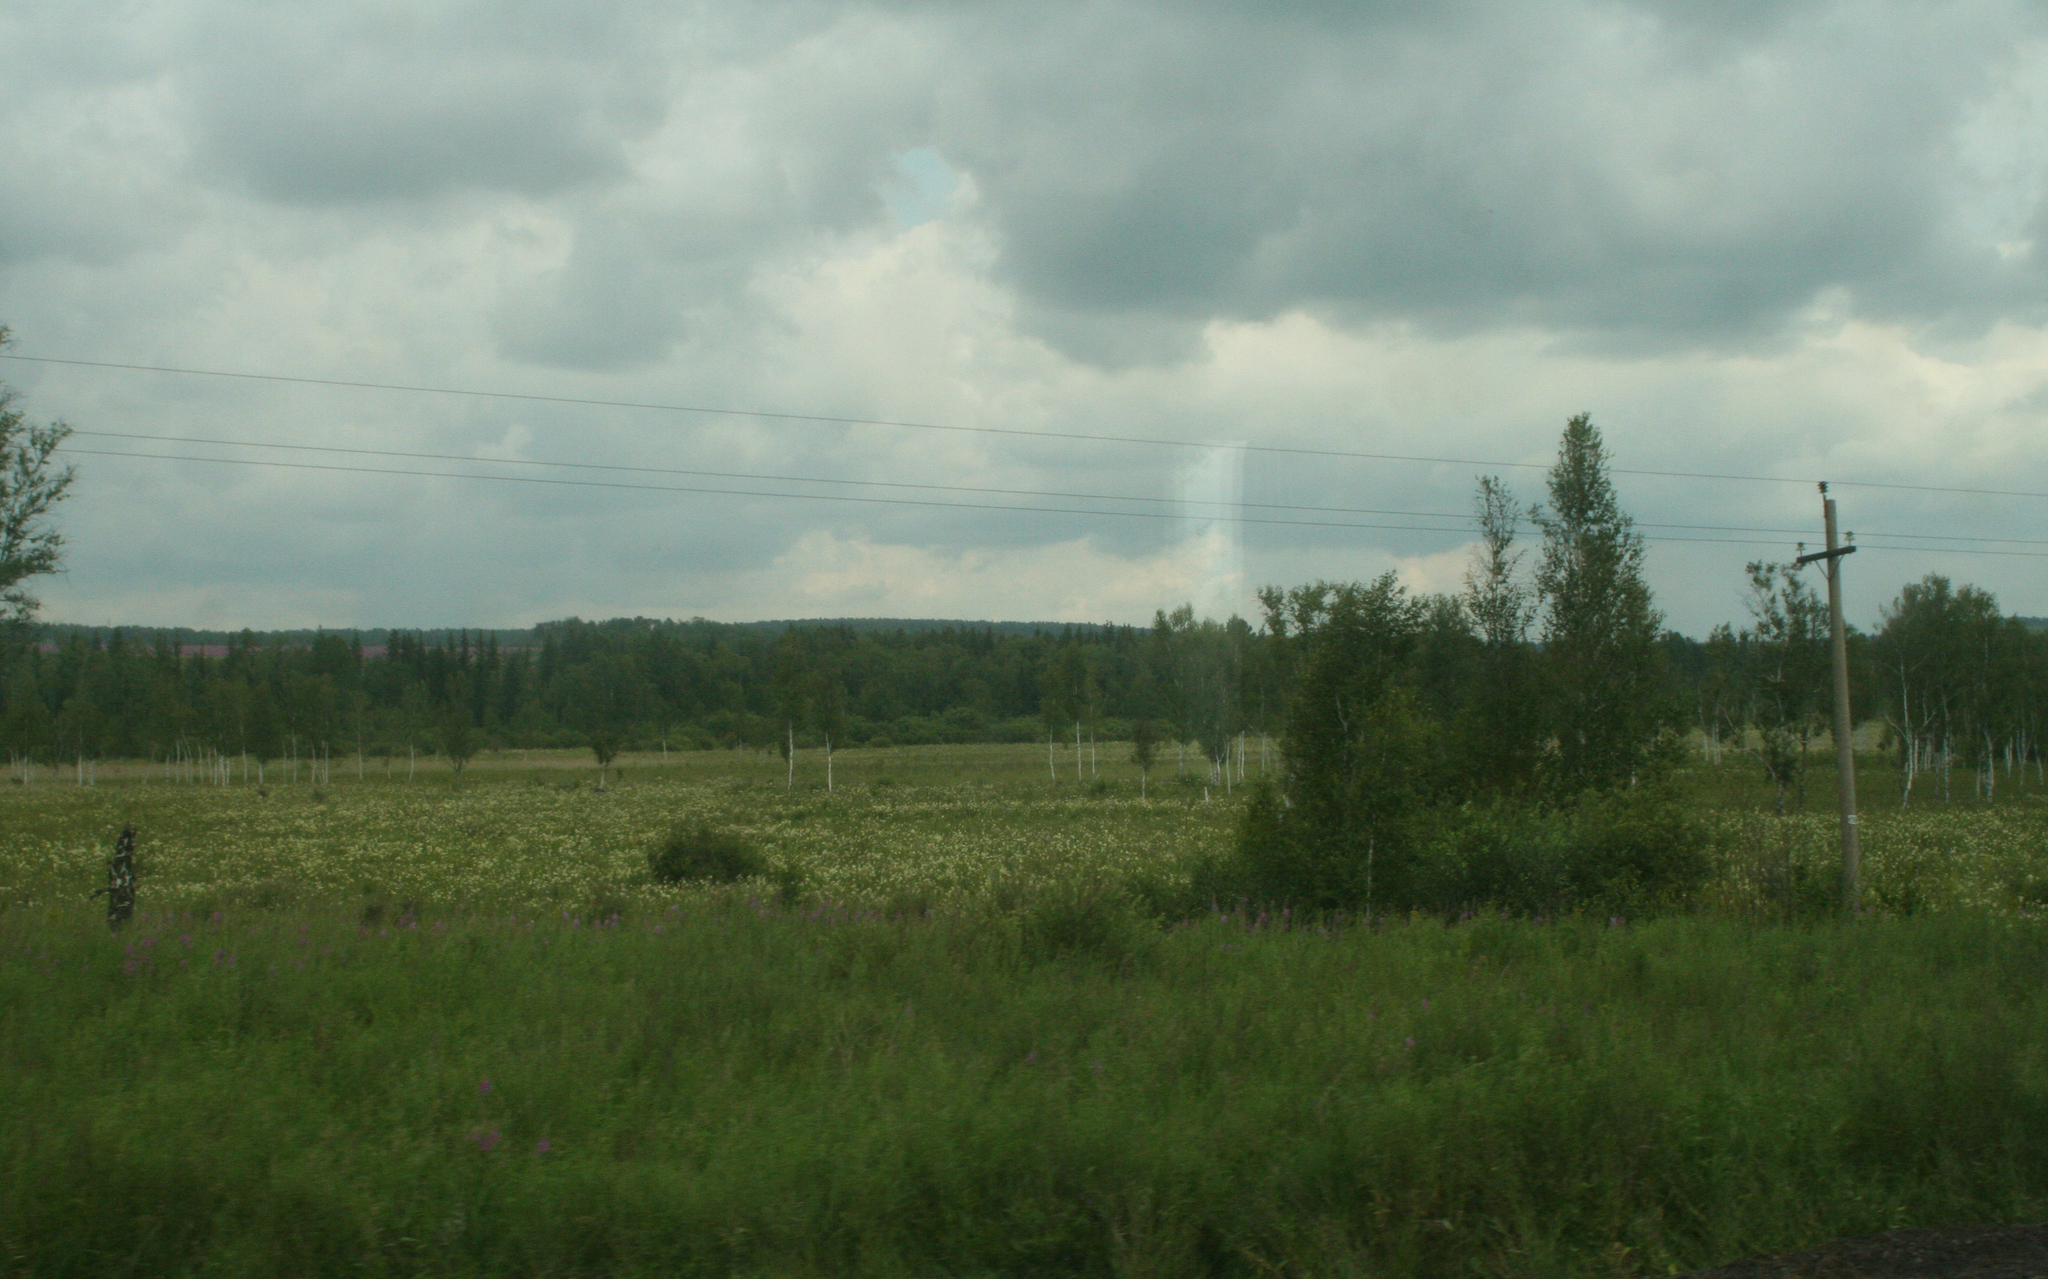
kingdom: Plantae
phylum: Tracheophyta
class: Magnoliopsida
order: Rosales
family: Rosaceae
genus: Filipendula
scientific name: Filipendula ulmaria
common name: Meadowsweet
